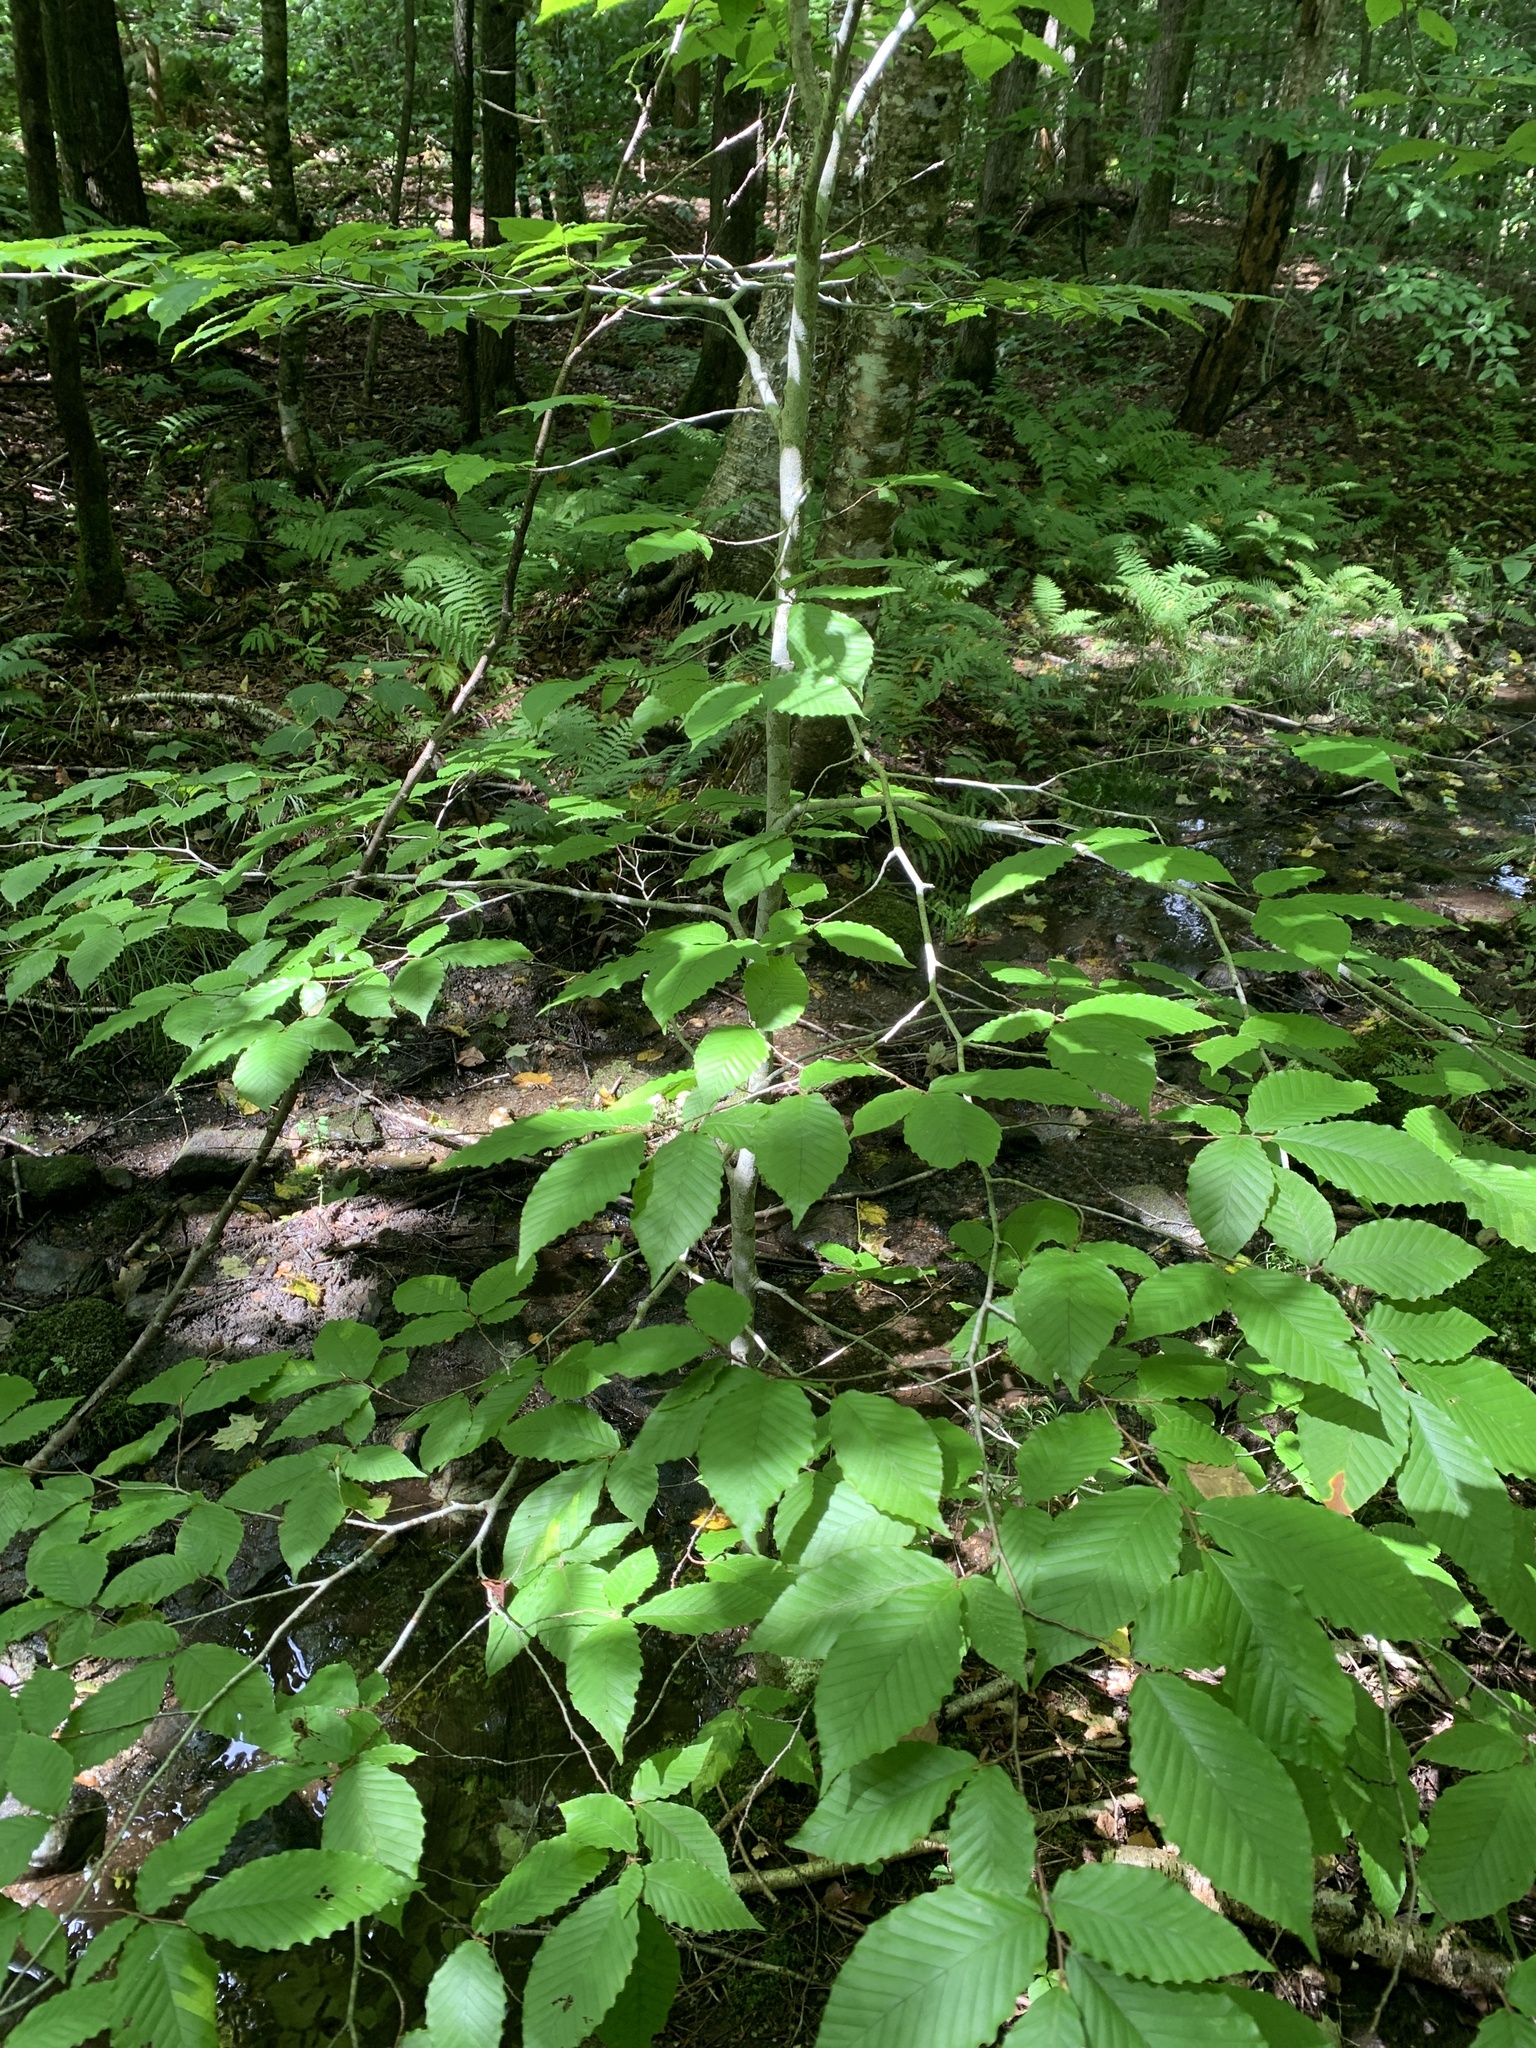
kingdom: Plantae
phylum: Tracheophyta
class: Magnoliopsida
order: Fagales
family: Fagaceae
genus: Fagus
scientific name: Fagus grandifolia
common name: American beech
